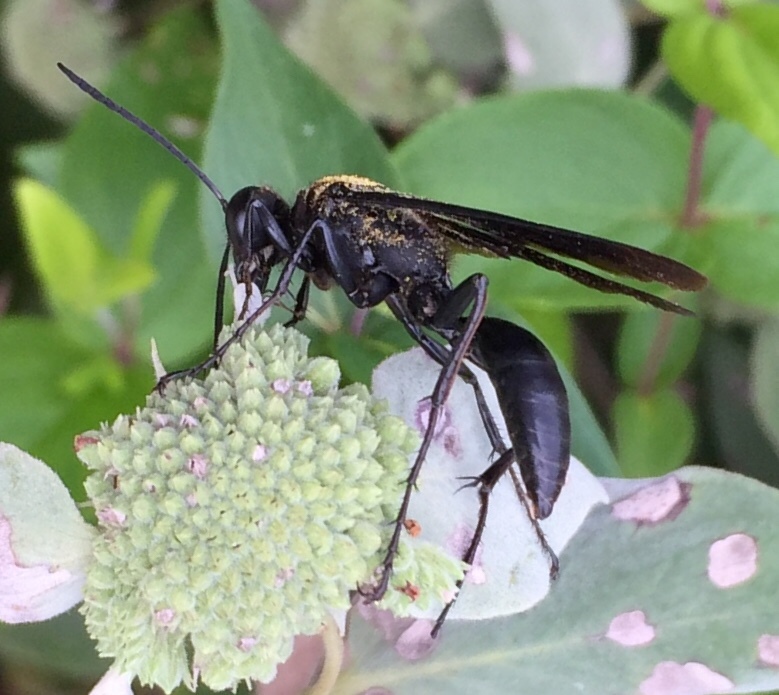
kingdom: Animalia
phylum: Arthropoda
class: Insecta
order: Hymenoptera
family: Sphecidae
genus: Sphex
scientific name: Sphex pensylvanicus
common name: Great black digger wasp
